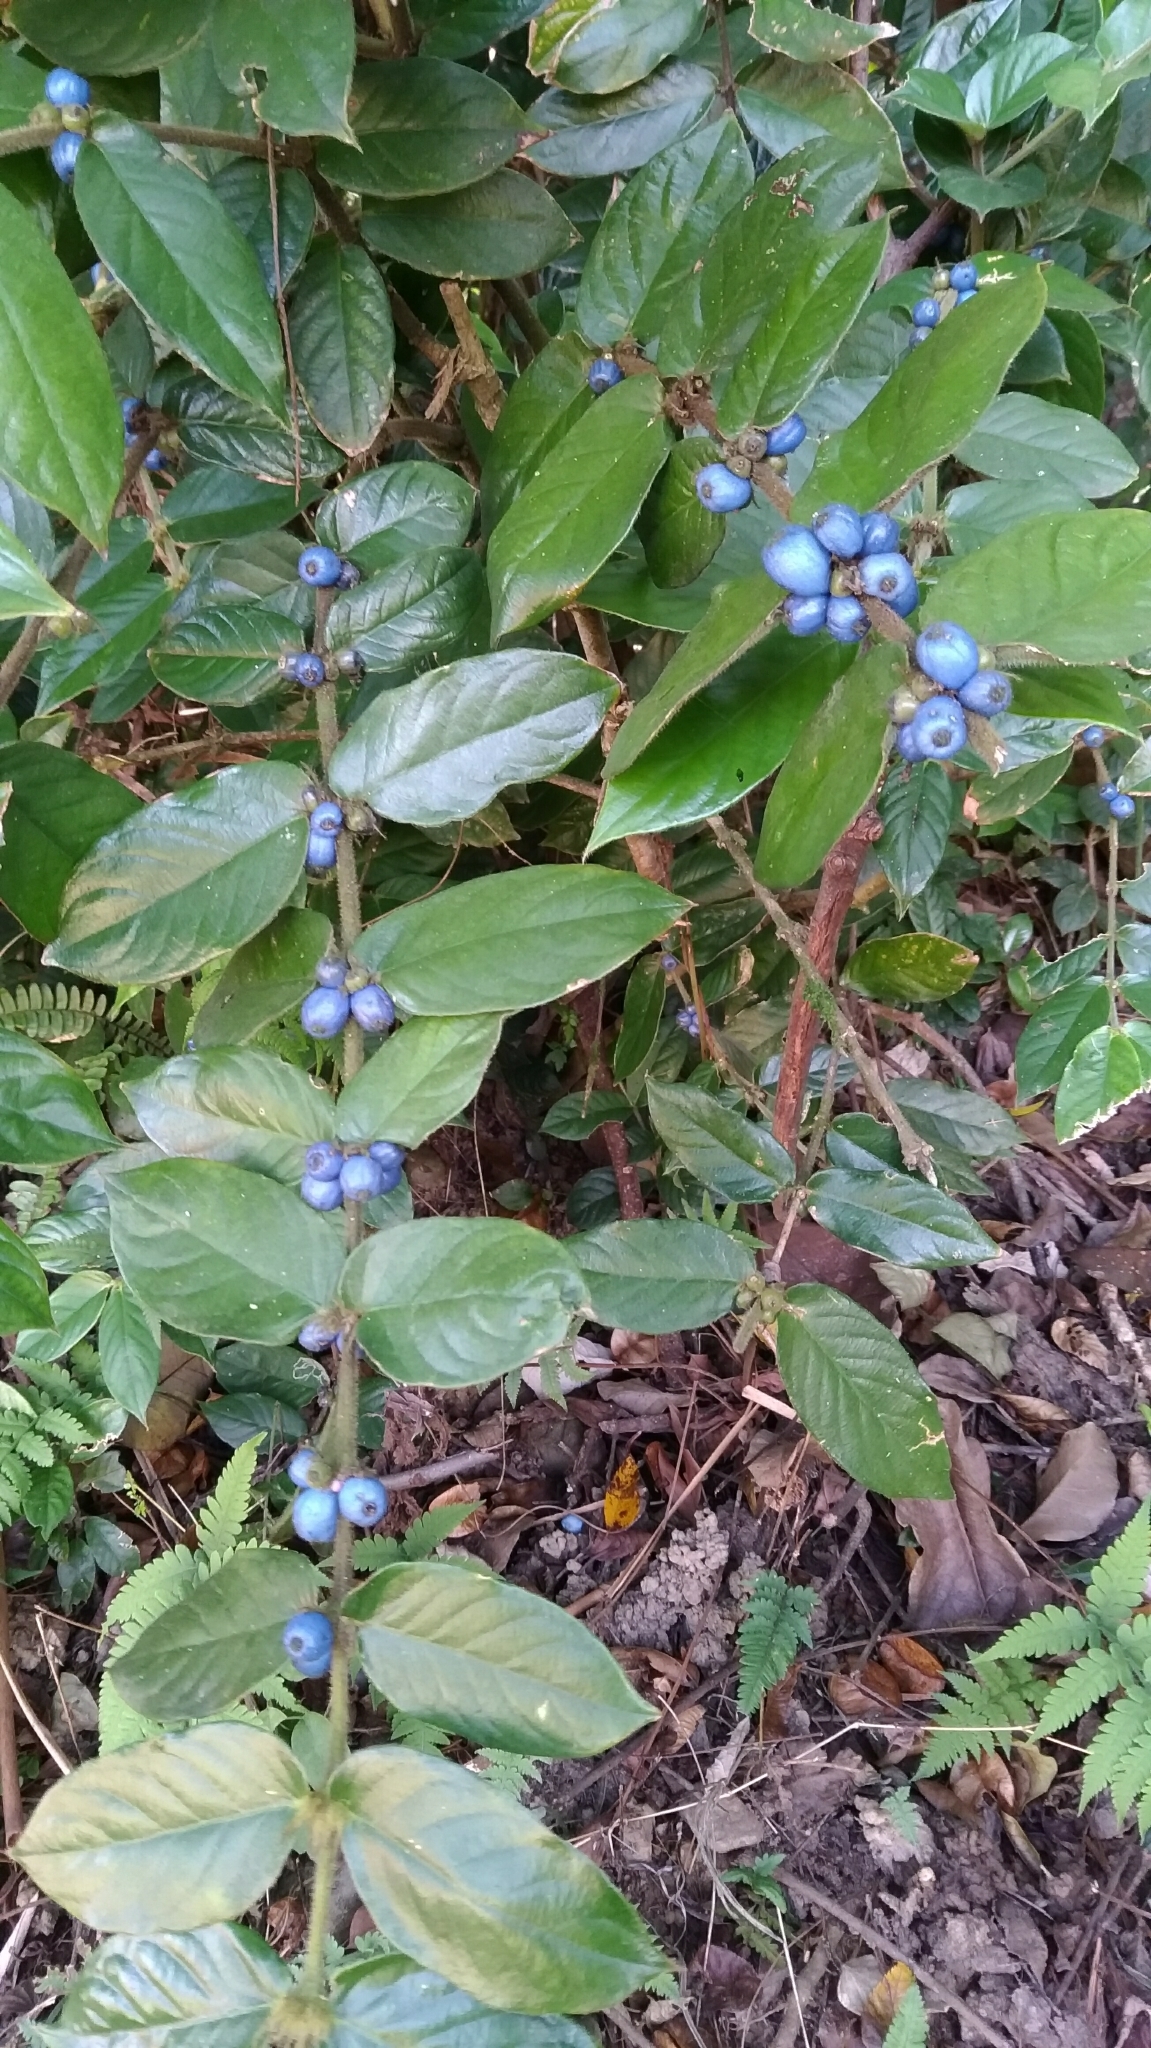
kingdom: Plantae
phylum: Tracheophyta
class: Magnoliopsida
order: Gentianales
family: Rubiaceae
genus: Lasianthus
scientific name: Lasianthus attenuatus
